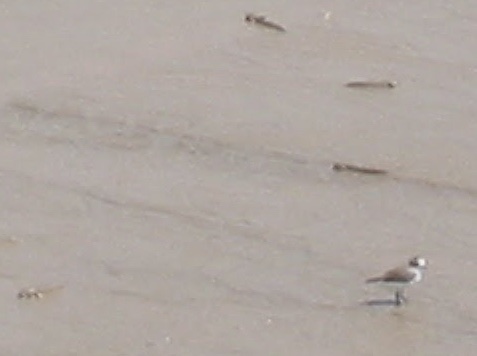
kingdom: Animalia
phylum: Chordata
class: Aves
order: Charadriiformes
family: Charadriidae
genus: Charadrius
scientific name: Charadrius alexandrinus
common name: Kentish plover
